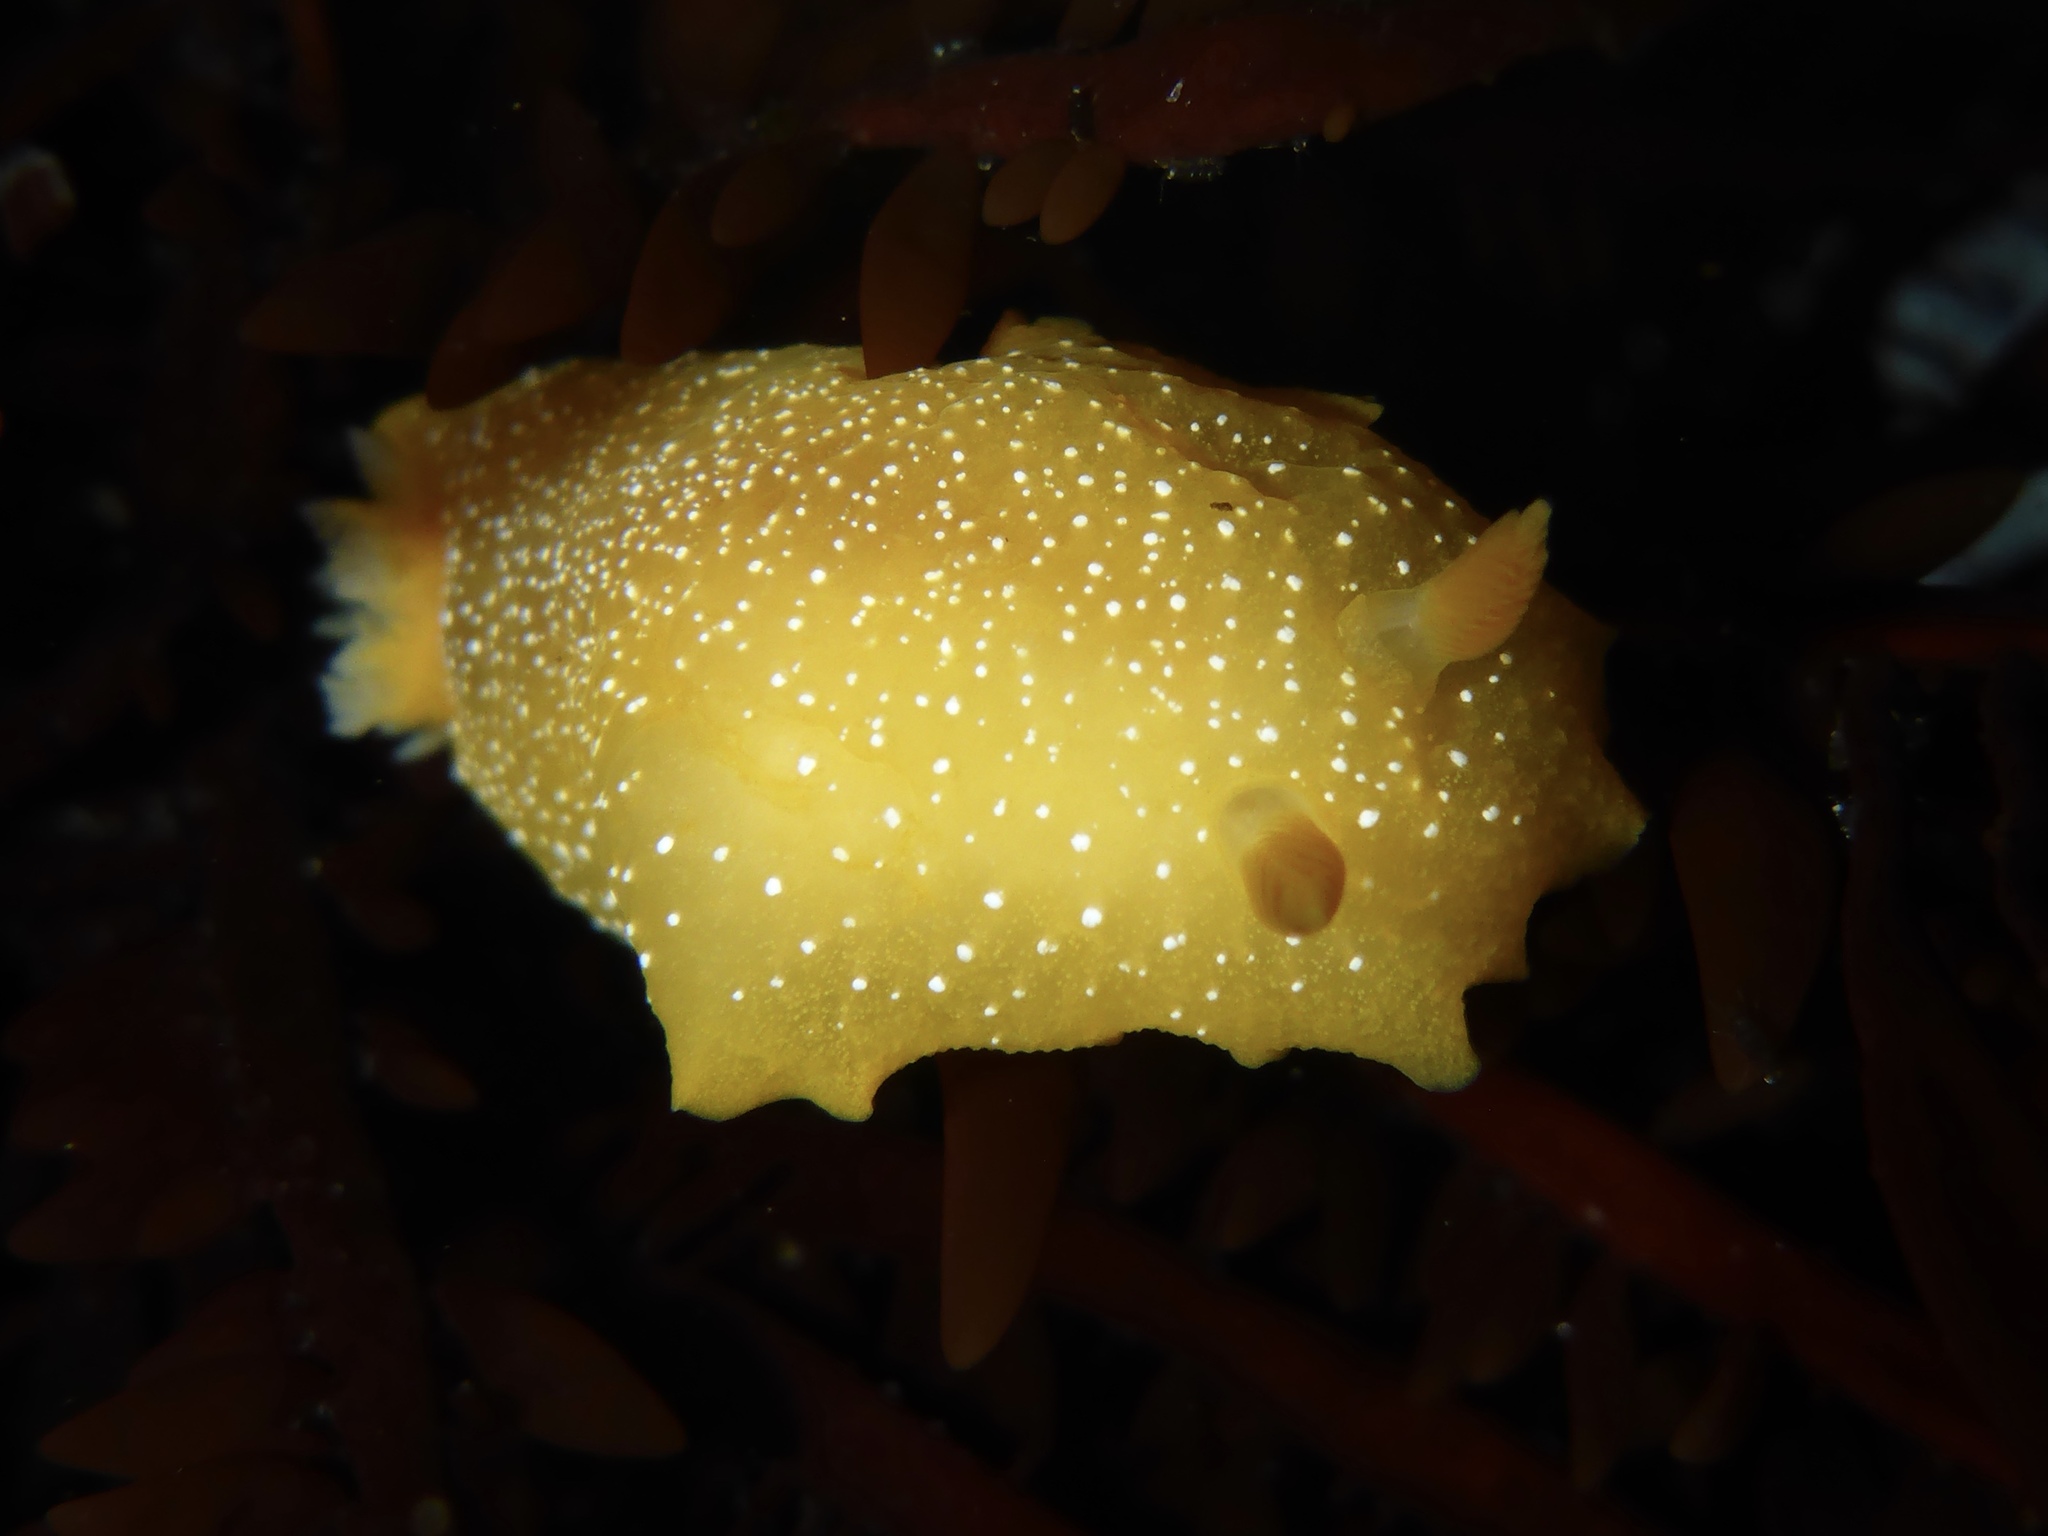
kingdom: Animalia
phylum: Mollusca
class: Gastropoda
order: Nudibranchia
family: Dendrodorididae
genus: Doriopsilla
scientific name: Doriopsilla fulva
